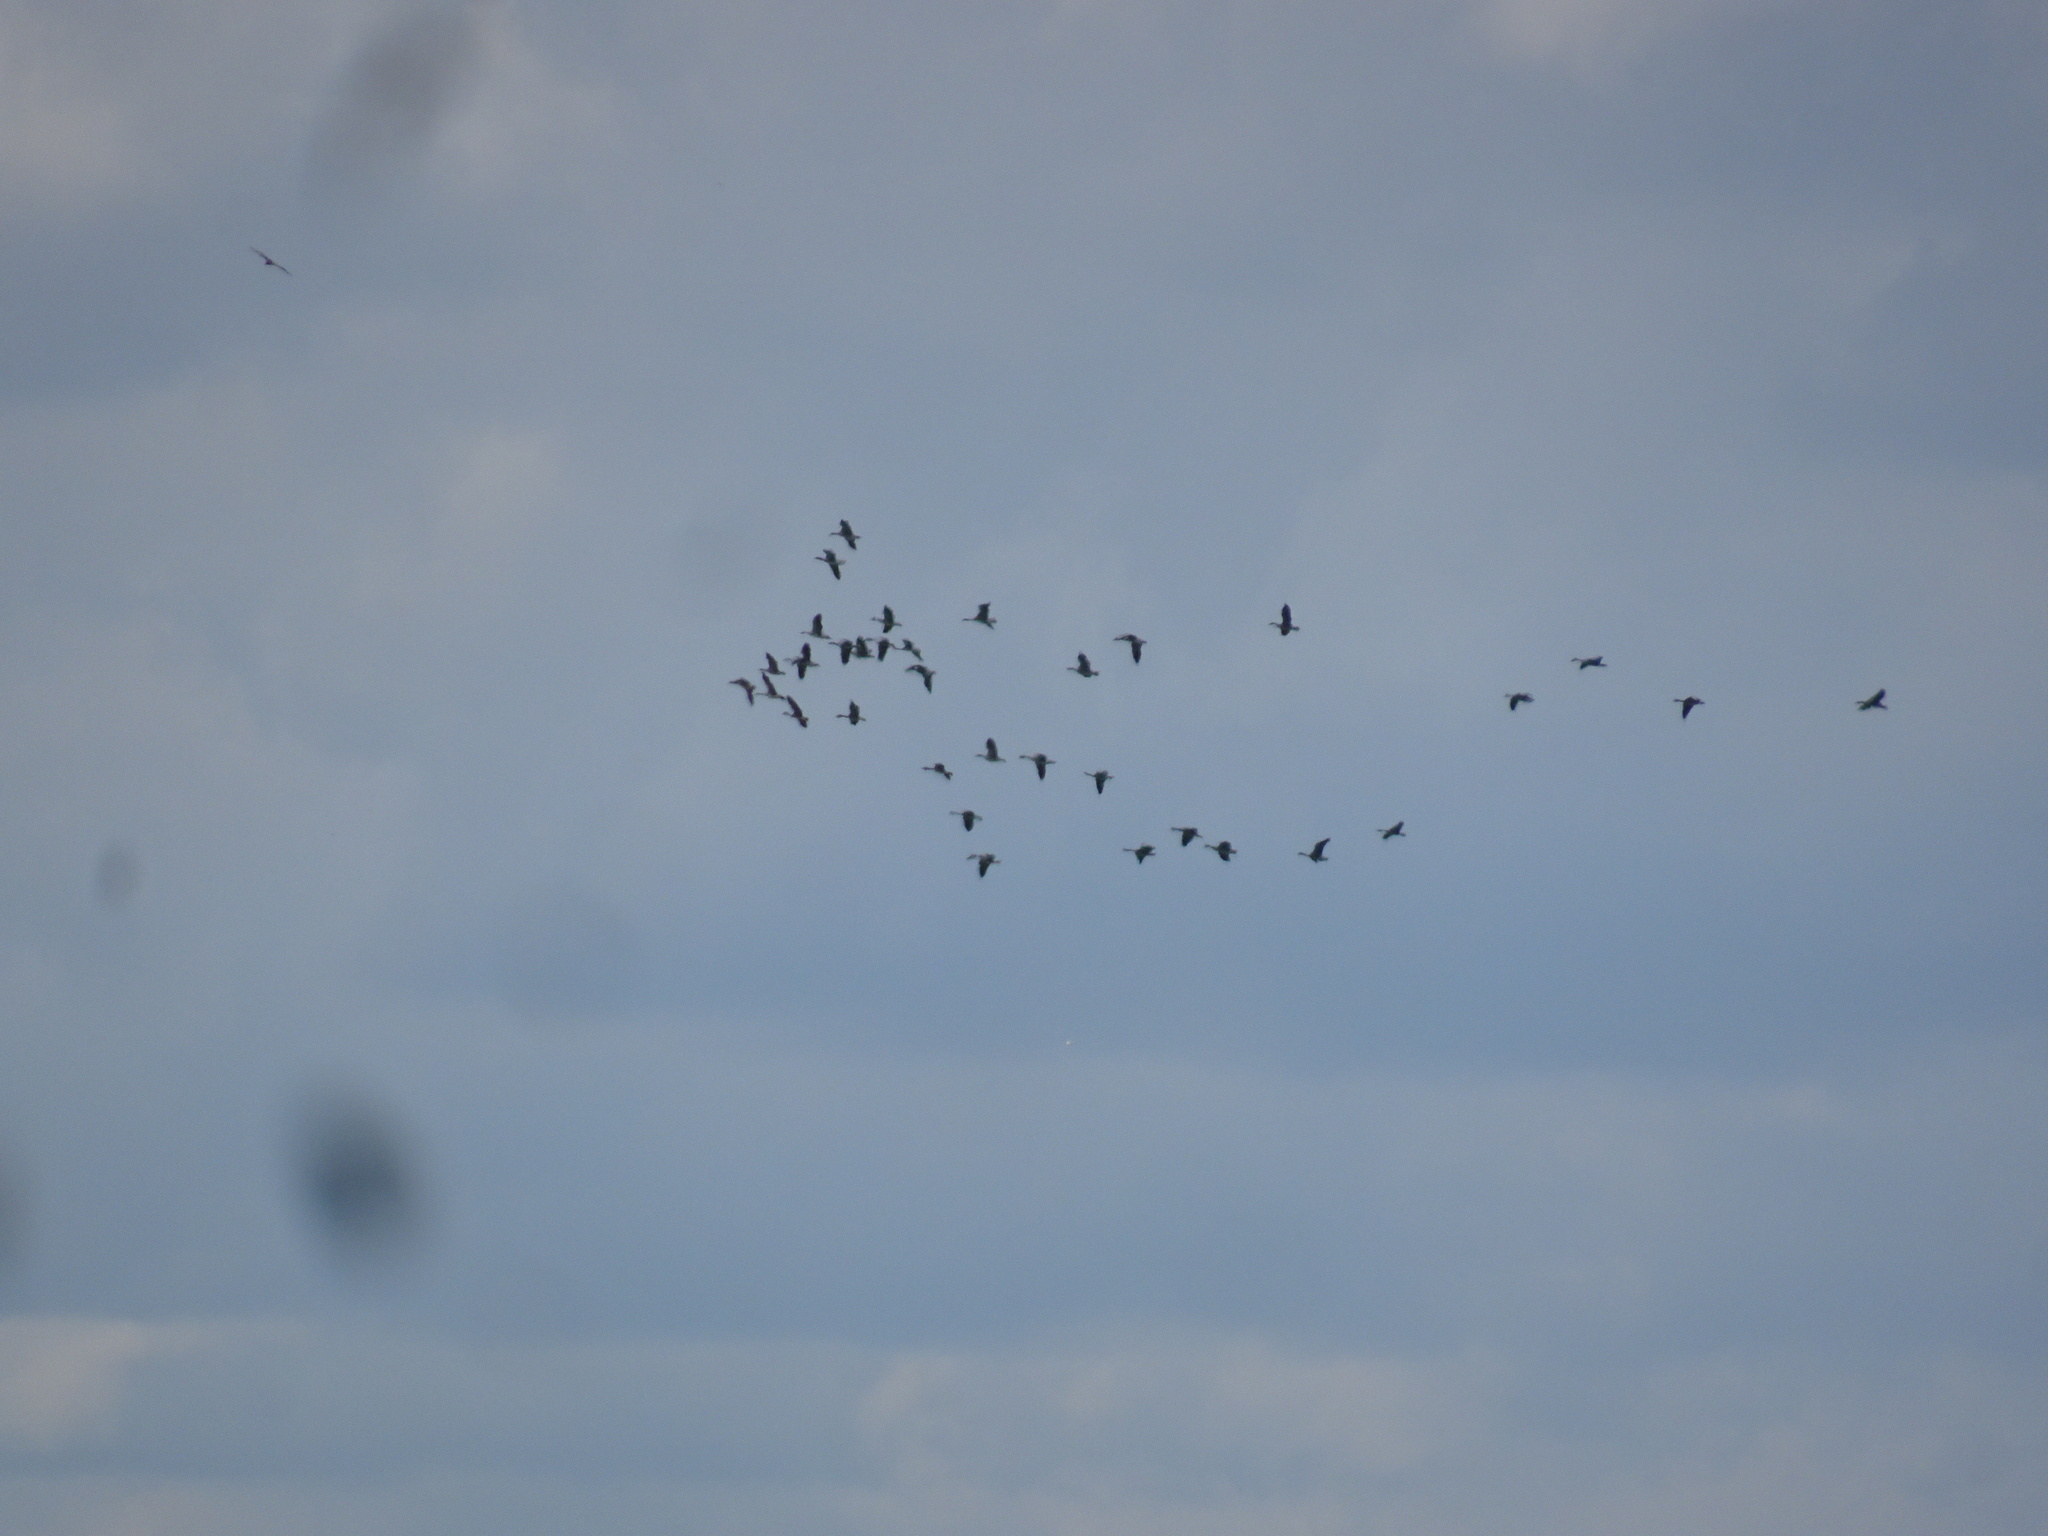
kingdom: Animalia
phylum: Chordata
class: Aves
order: Anseriformes
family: Anatidae
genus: Anser
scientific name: Anser anser
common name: Greylag goose
